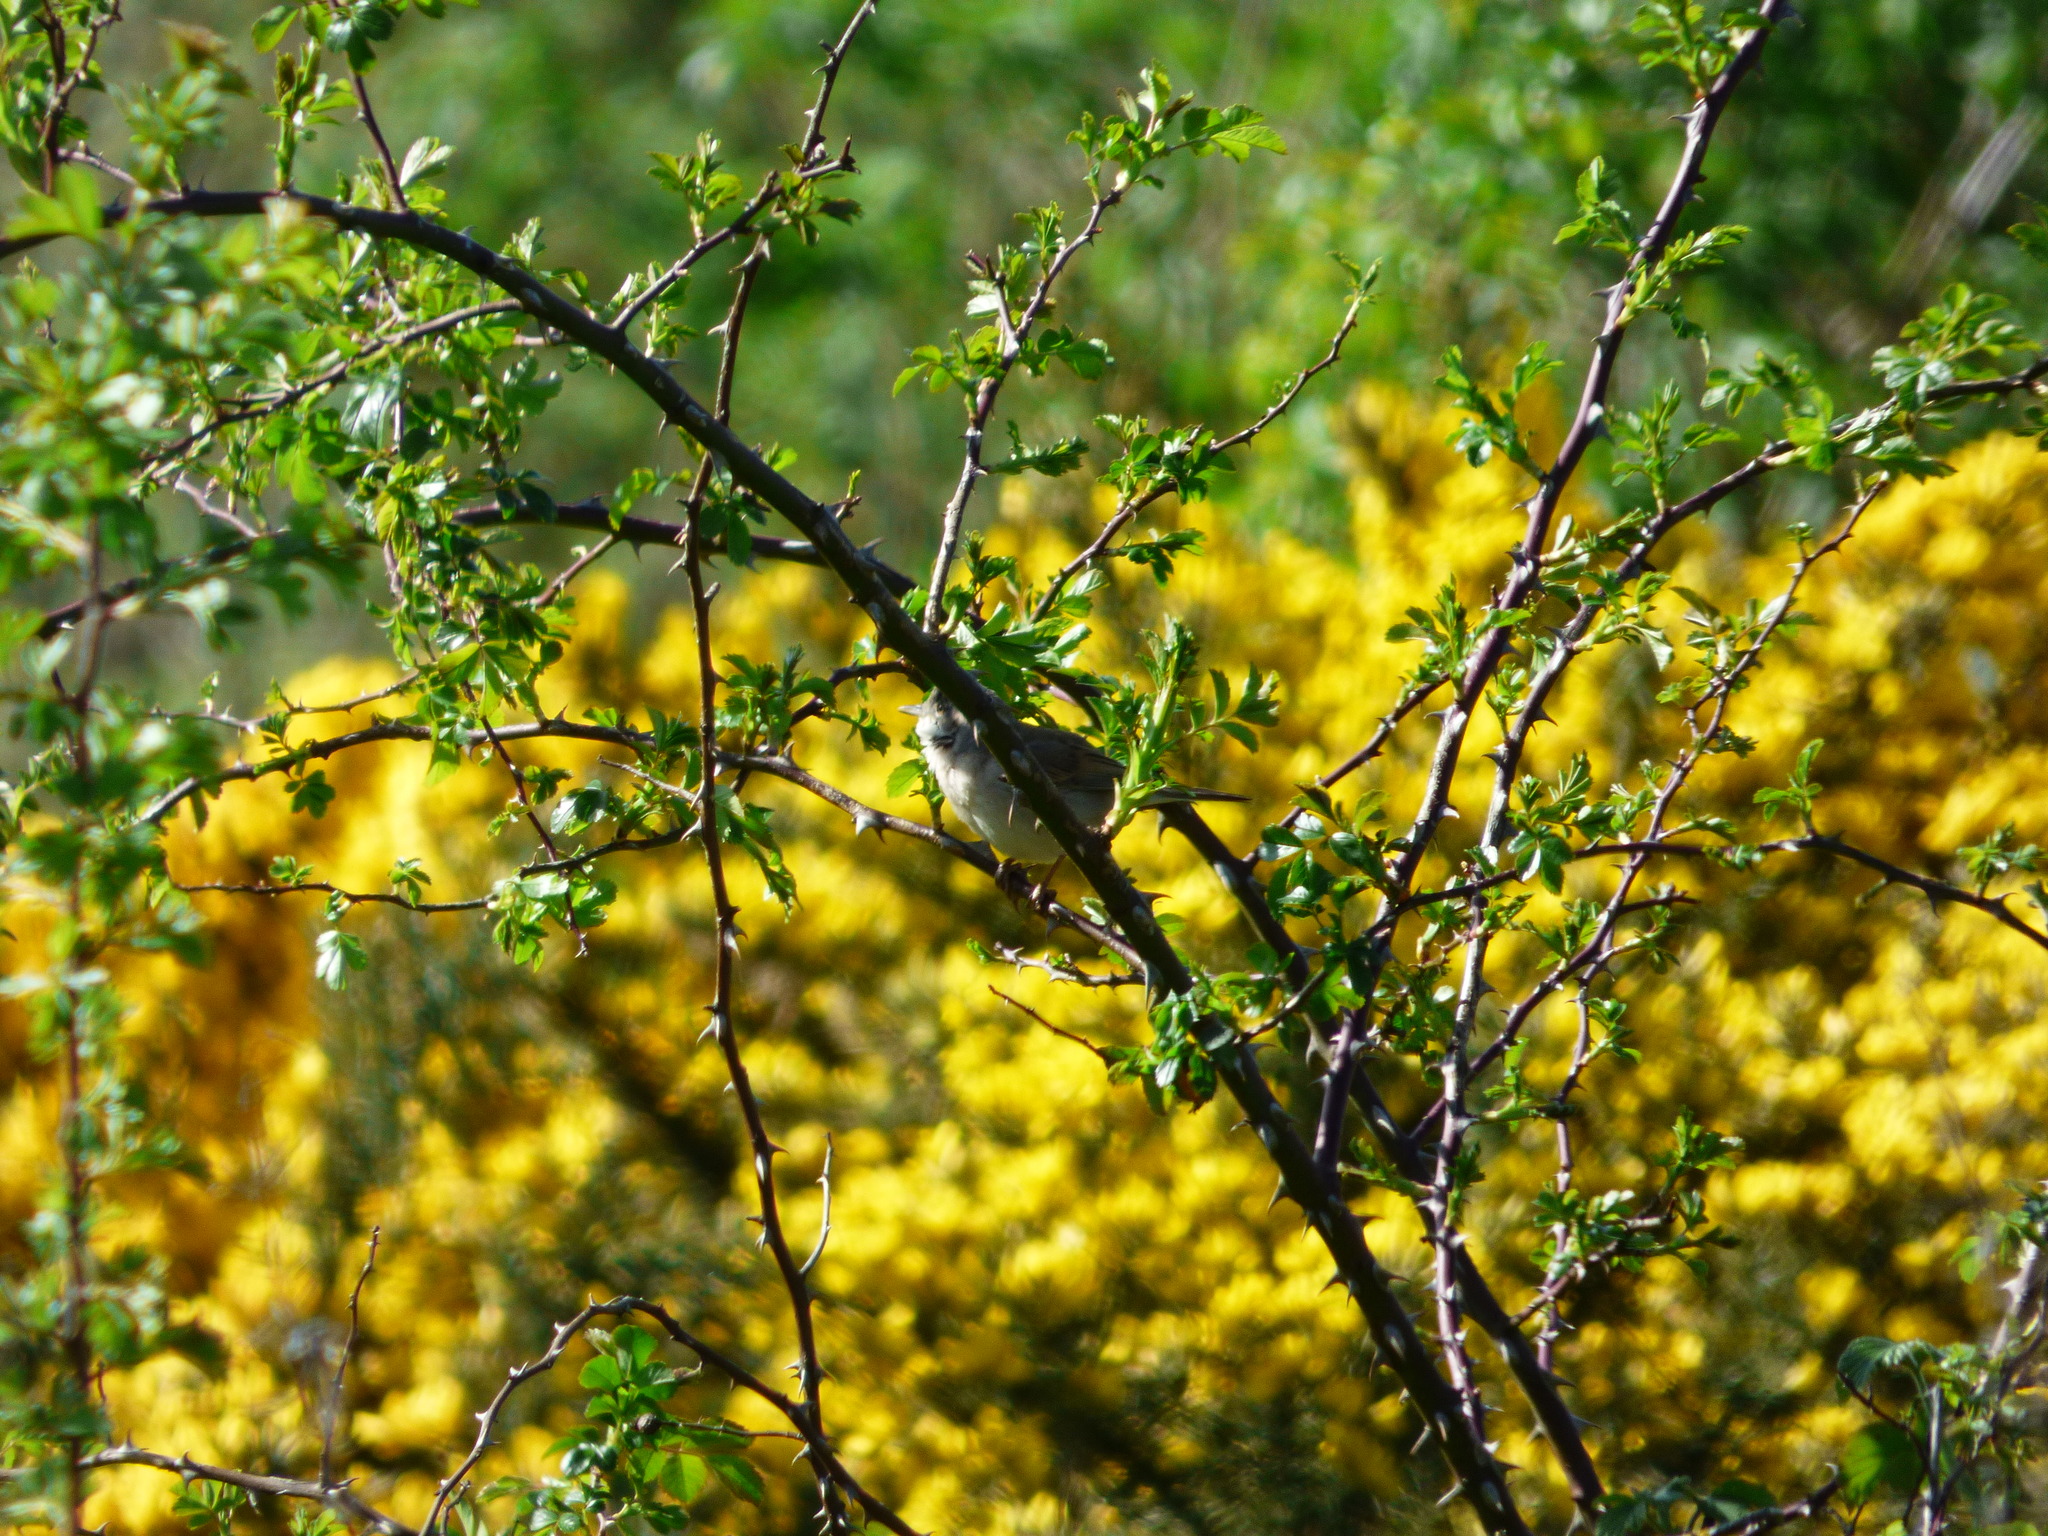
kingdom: Animalia
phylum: Chordata
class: Aves
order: Passeriformes
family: Sylviidae
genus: Sylvia
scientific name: Sylvia communis
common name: Common whitethroat
